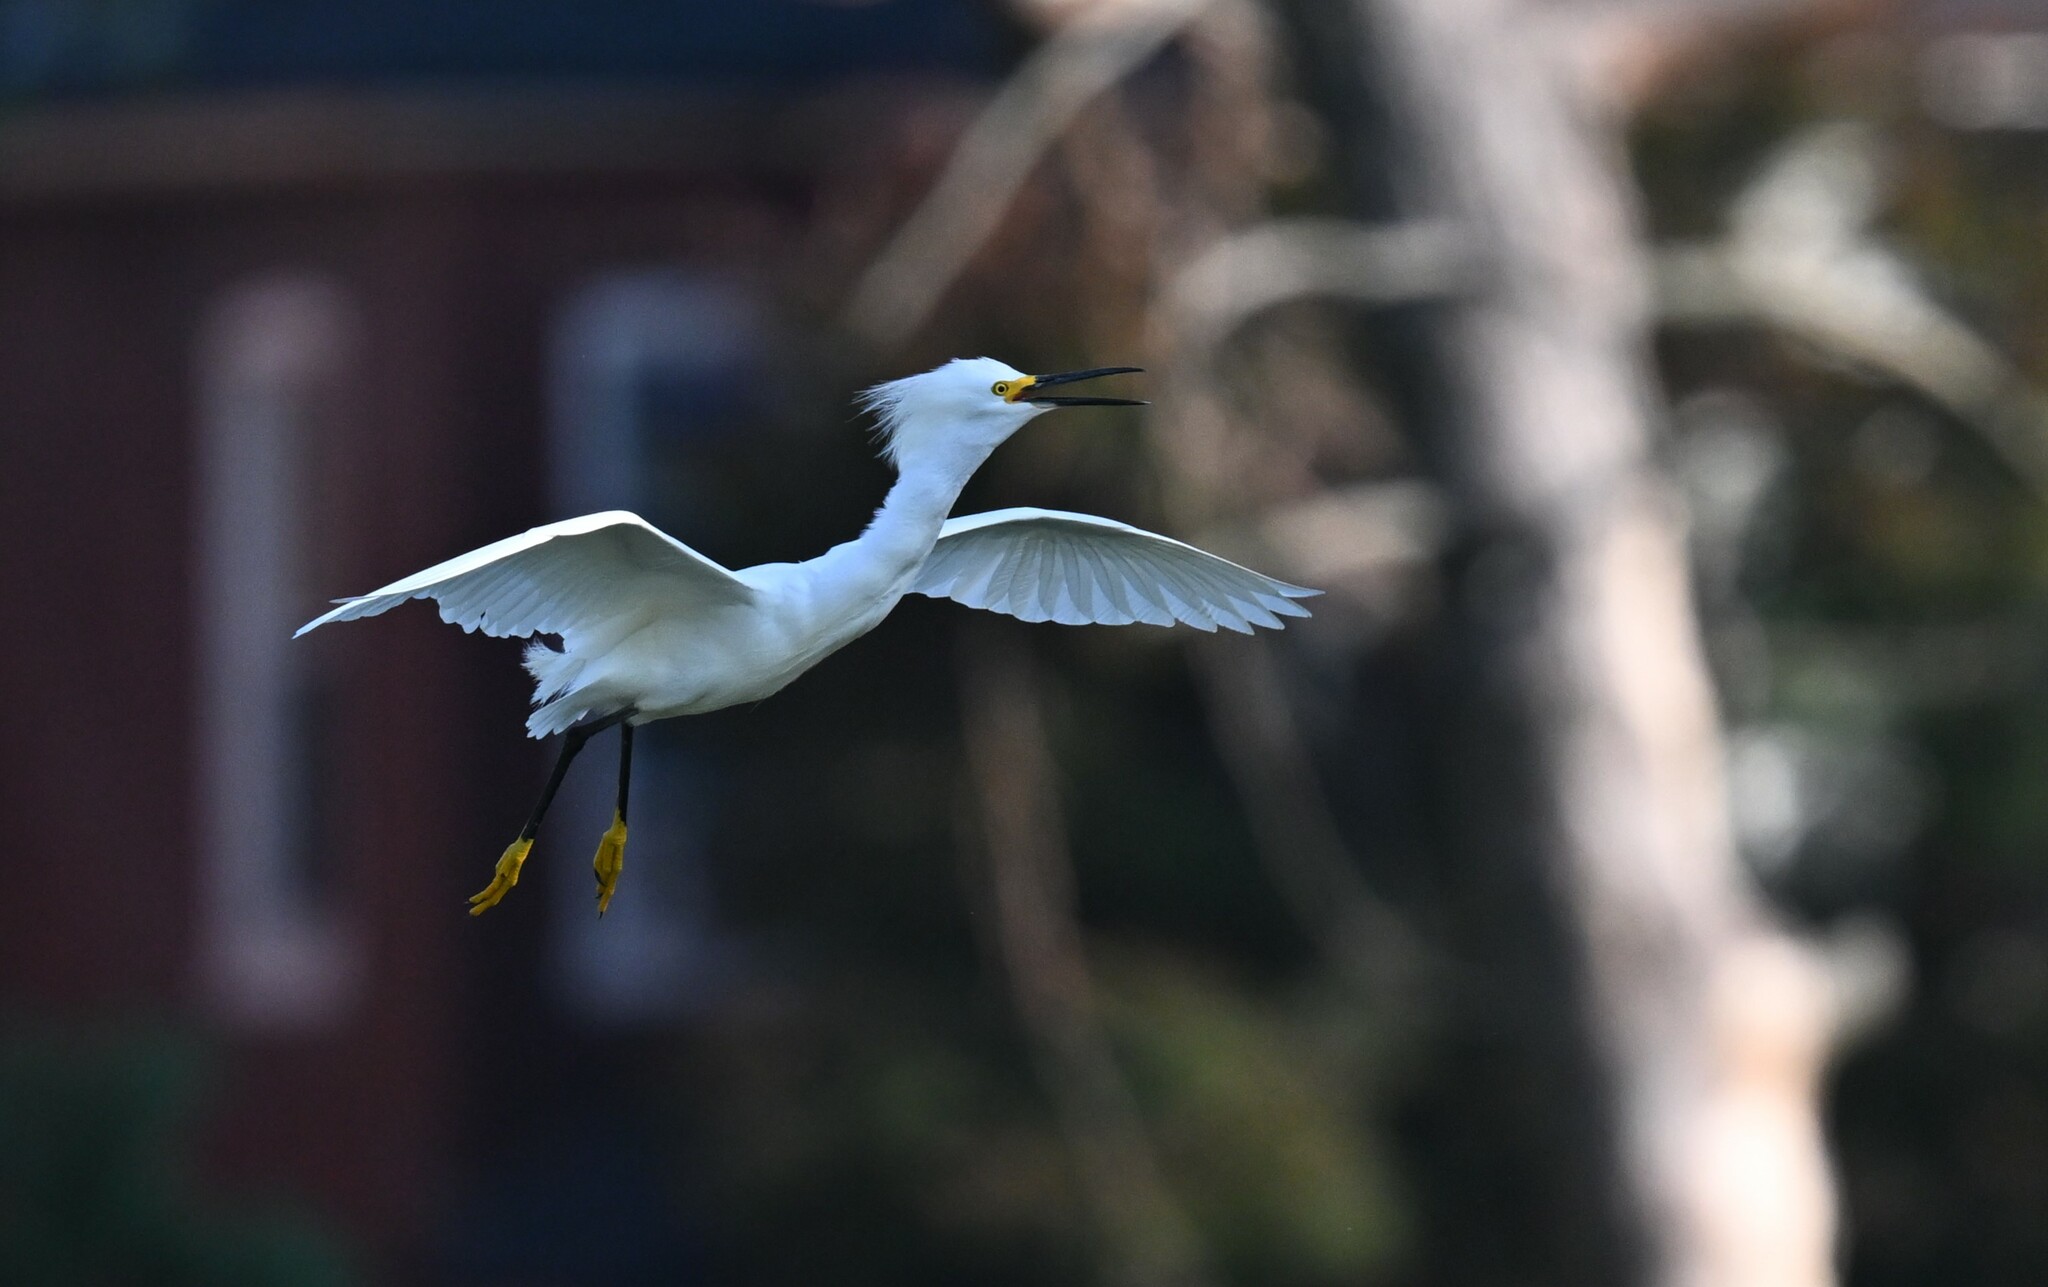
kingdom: Animalia
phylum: Chordata
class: Aves
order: Pelecaniformes
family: Ardeidae
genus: Egretta
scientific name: Egretta thula
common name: Snowy egret
